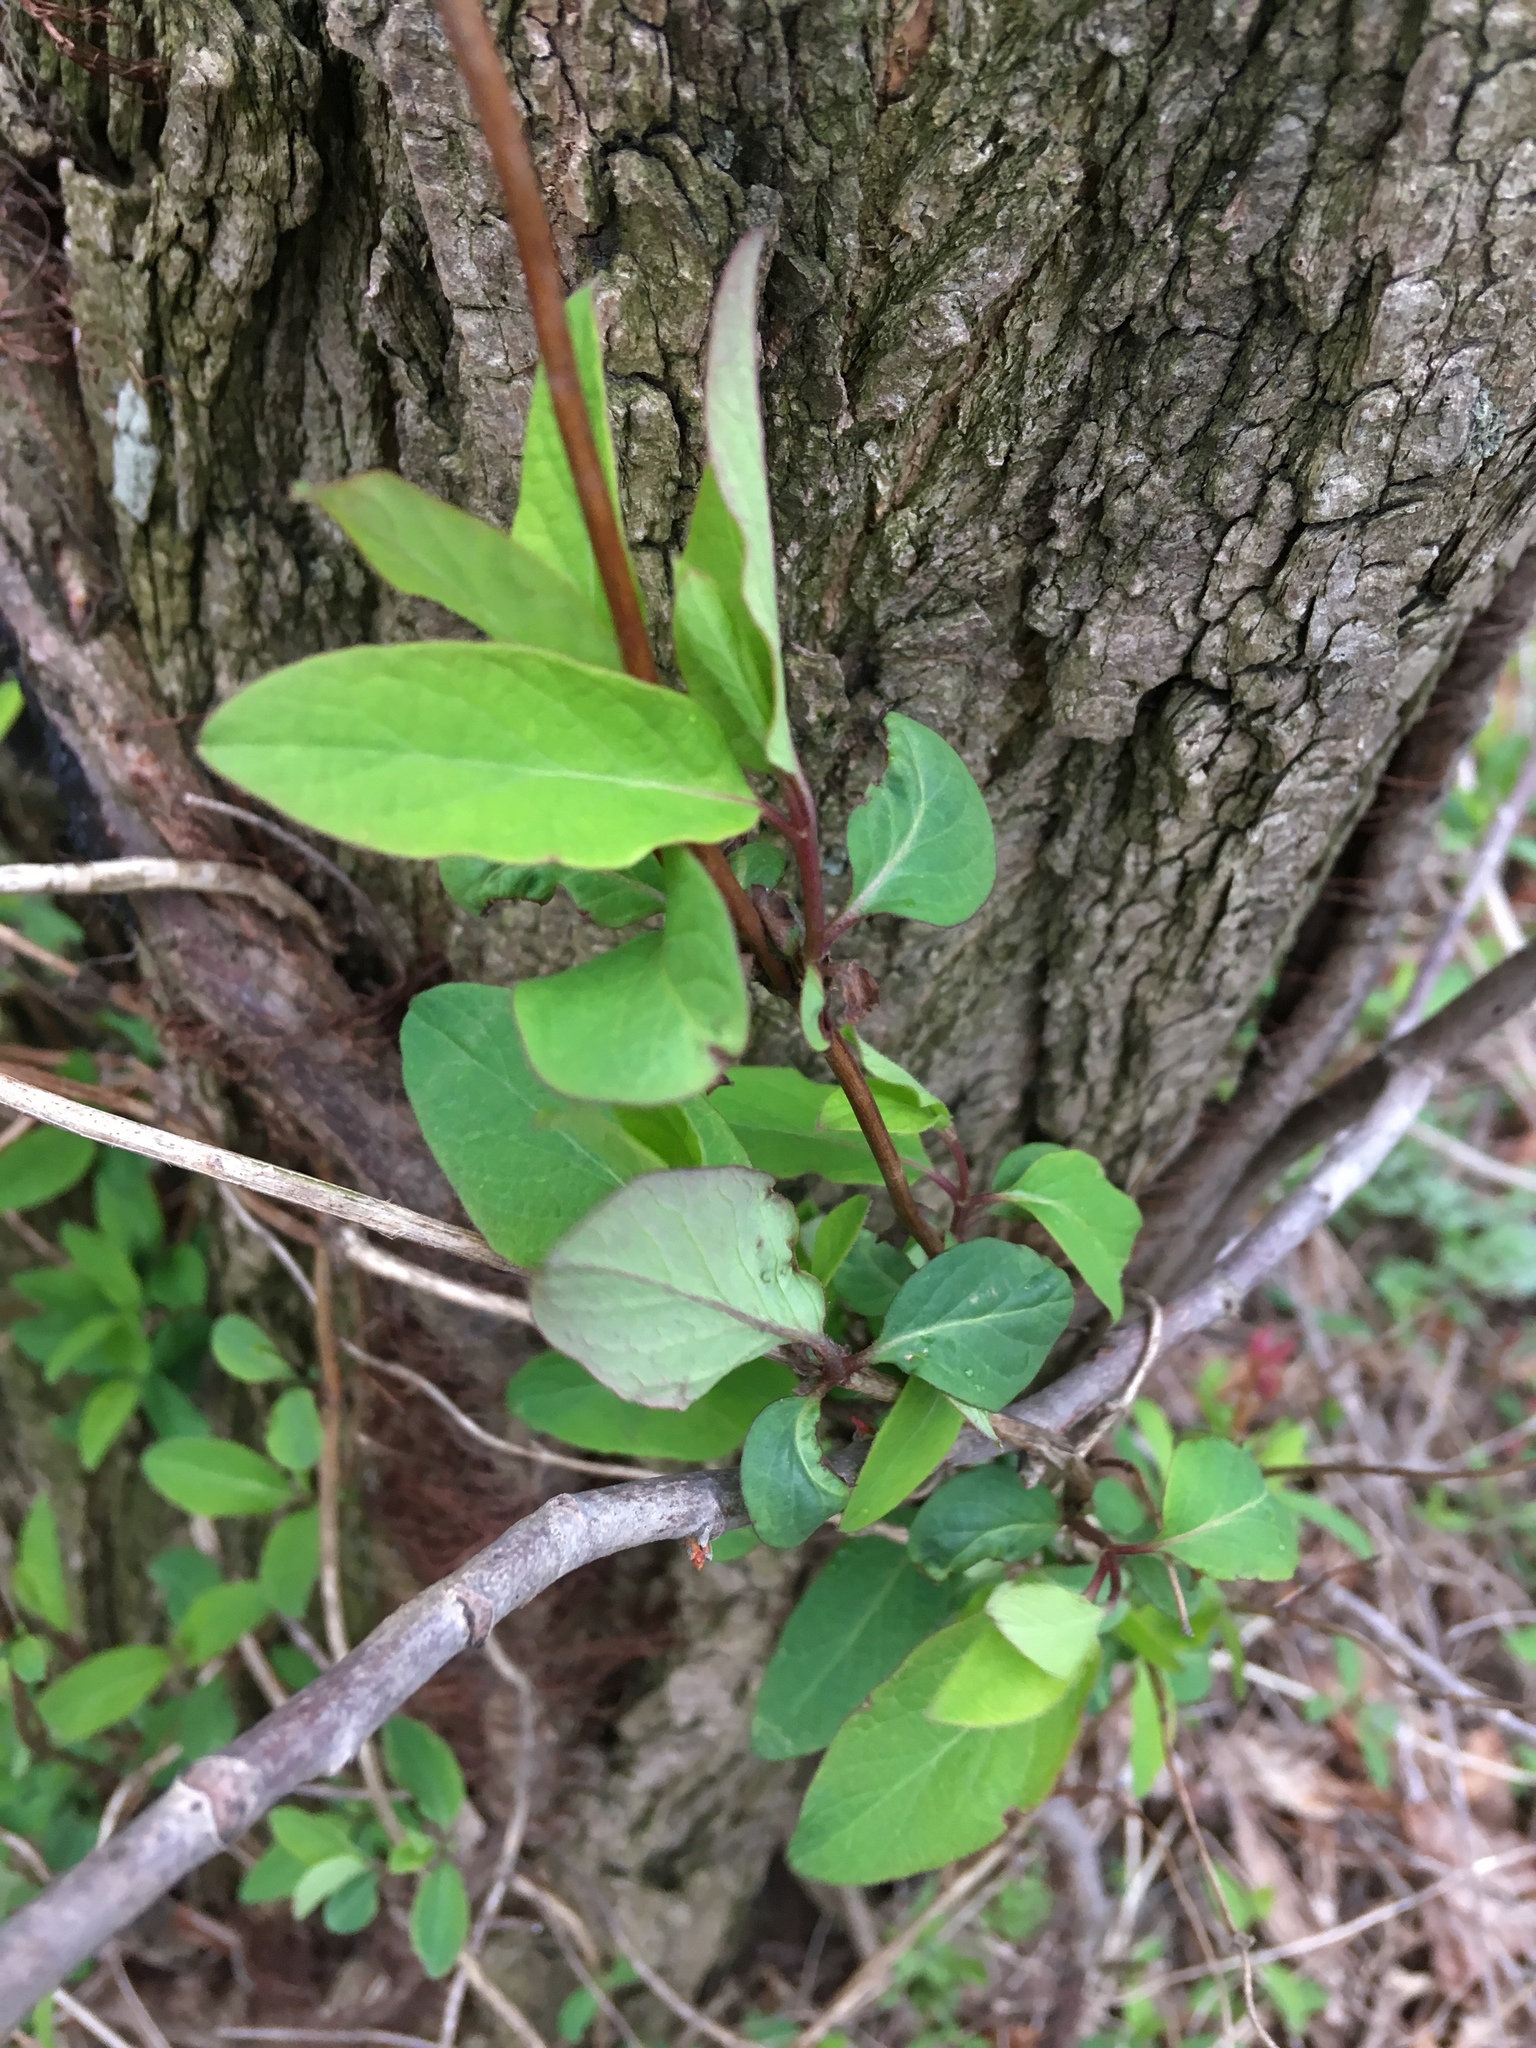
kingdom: Plantae
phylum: Tracheophyta
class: Magnoliopsida
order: Dipsacales
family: Caprifoliaceae
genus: Lonicera
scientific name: Lonicera japonica
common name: Japanese honeysuckle
